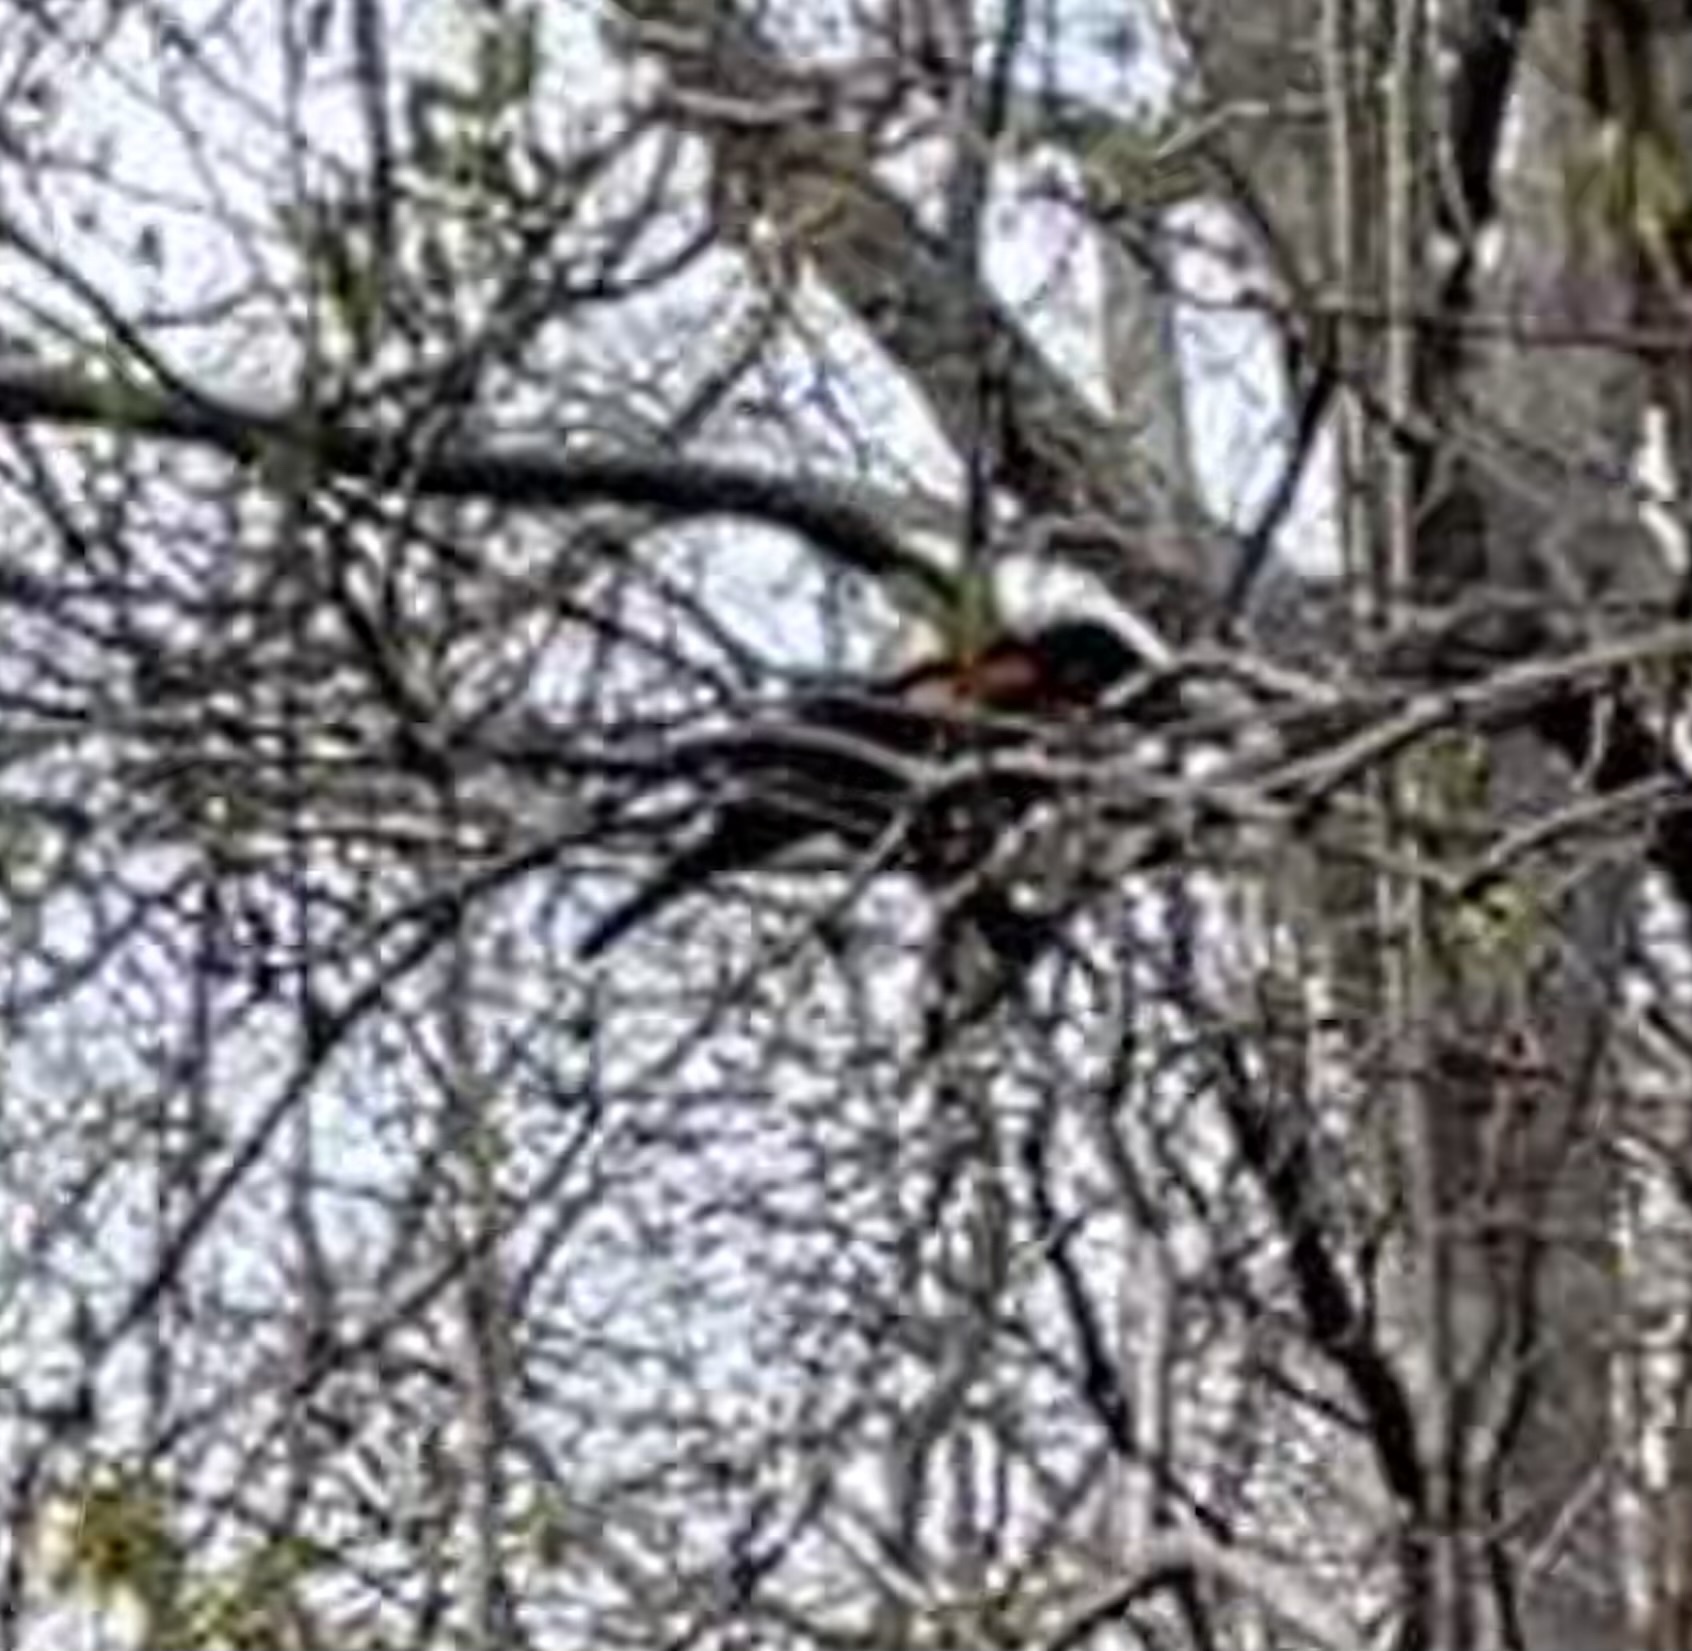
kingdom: Animalia
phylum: Chordata
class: Aves
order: Passeriformes
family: Icteridae
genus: Agelaius
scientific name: Agelaius phoeniceus
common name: Red-winged blackbird
